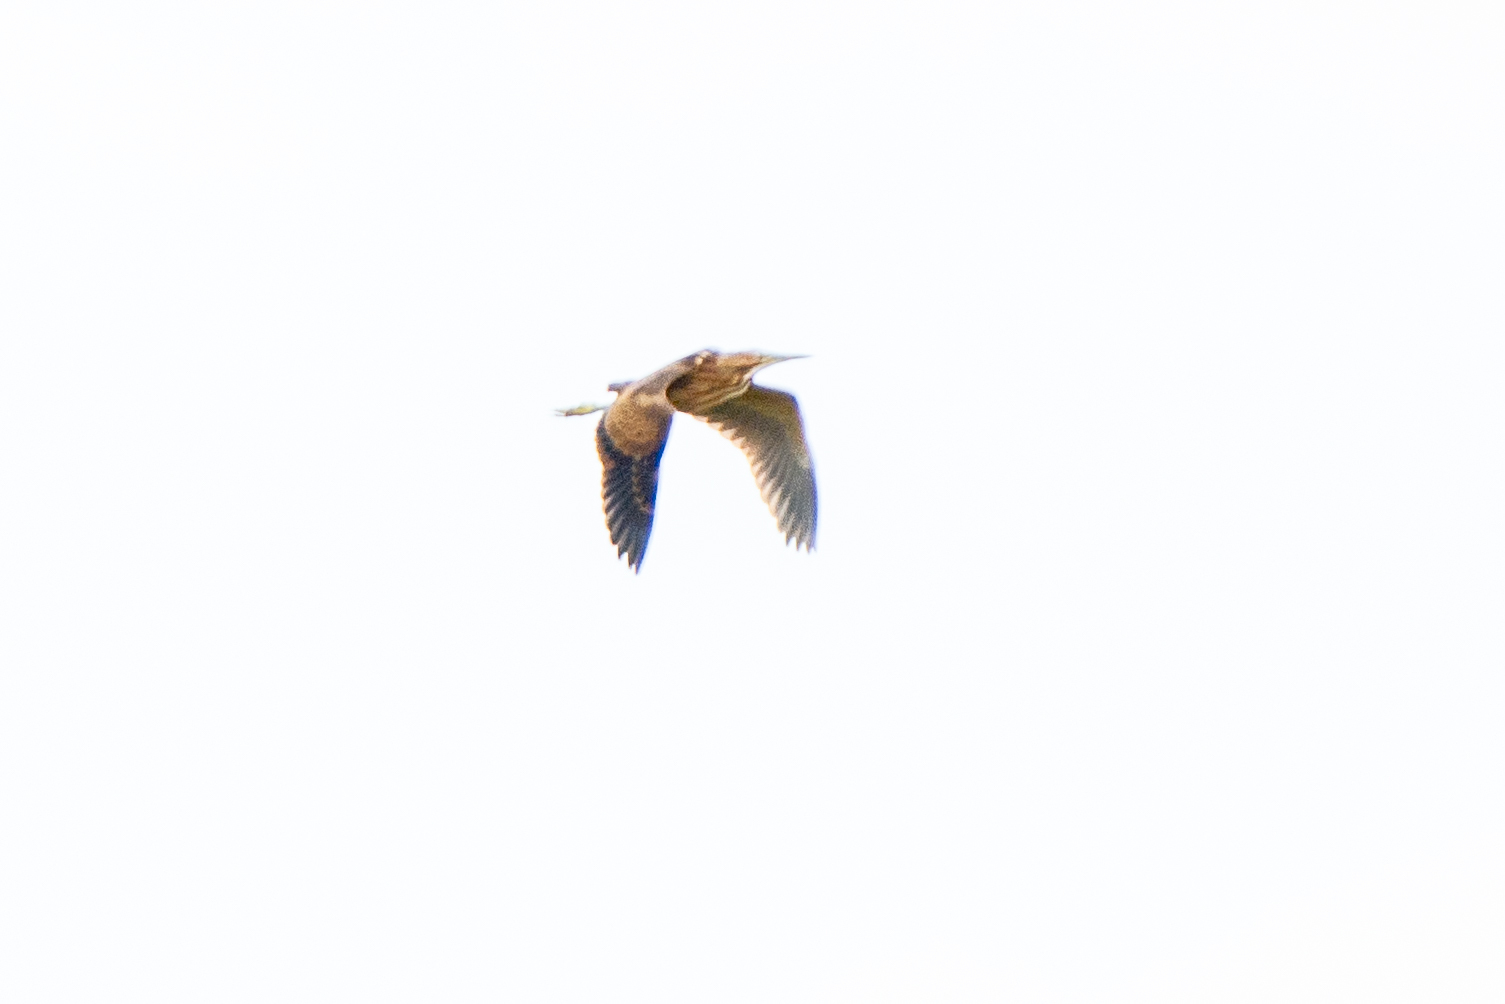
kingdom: Animalia
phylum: Chordata
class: Aves
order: Pelecaniformes
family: Ardeidae
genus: Botaurus
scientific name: Botaurus lentiginosus
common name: American bittern
